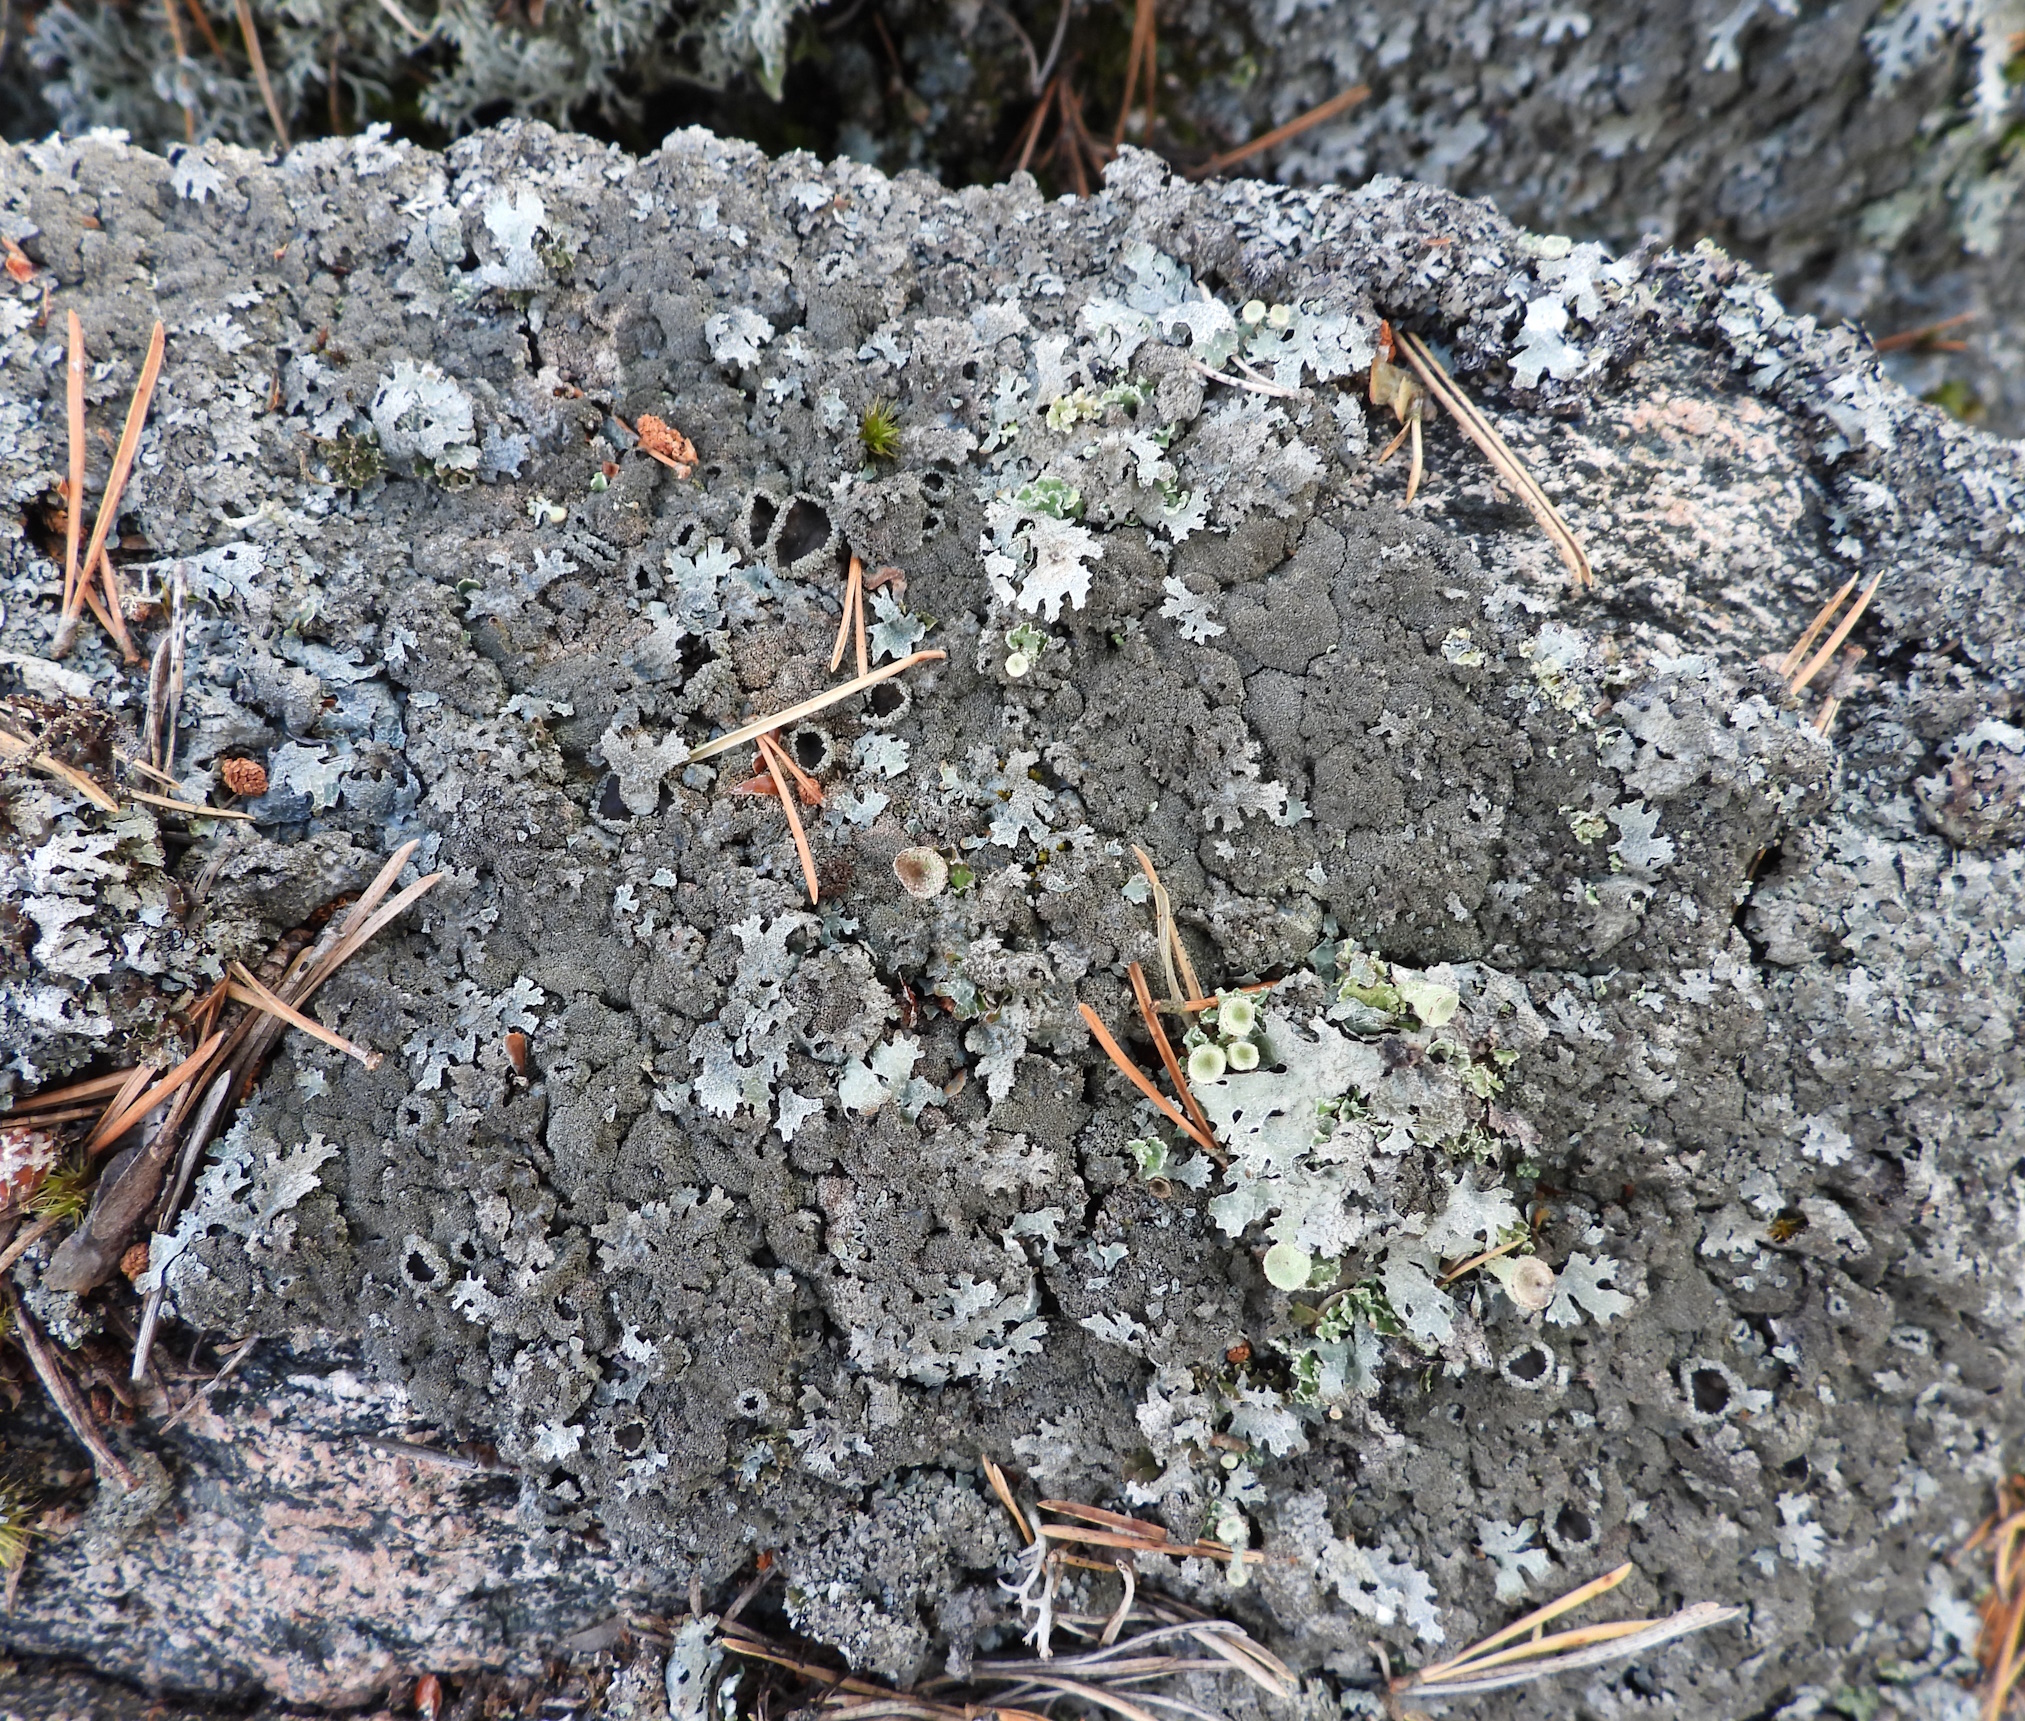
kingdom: Fungi
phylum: Ascomycota
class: Lecanoromycetes
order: Lecanorales
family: Parmeliaceae
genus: Parmelia
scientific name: Parmelia saxatilis
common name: Salted shield lichen
